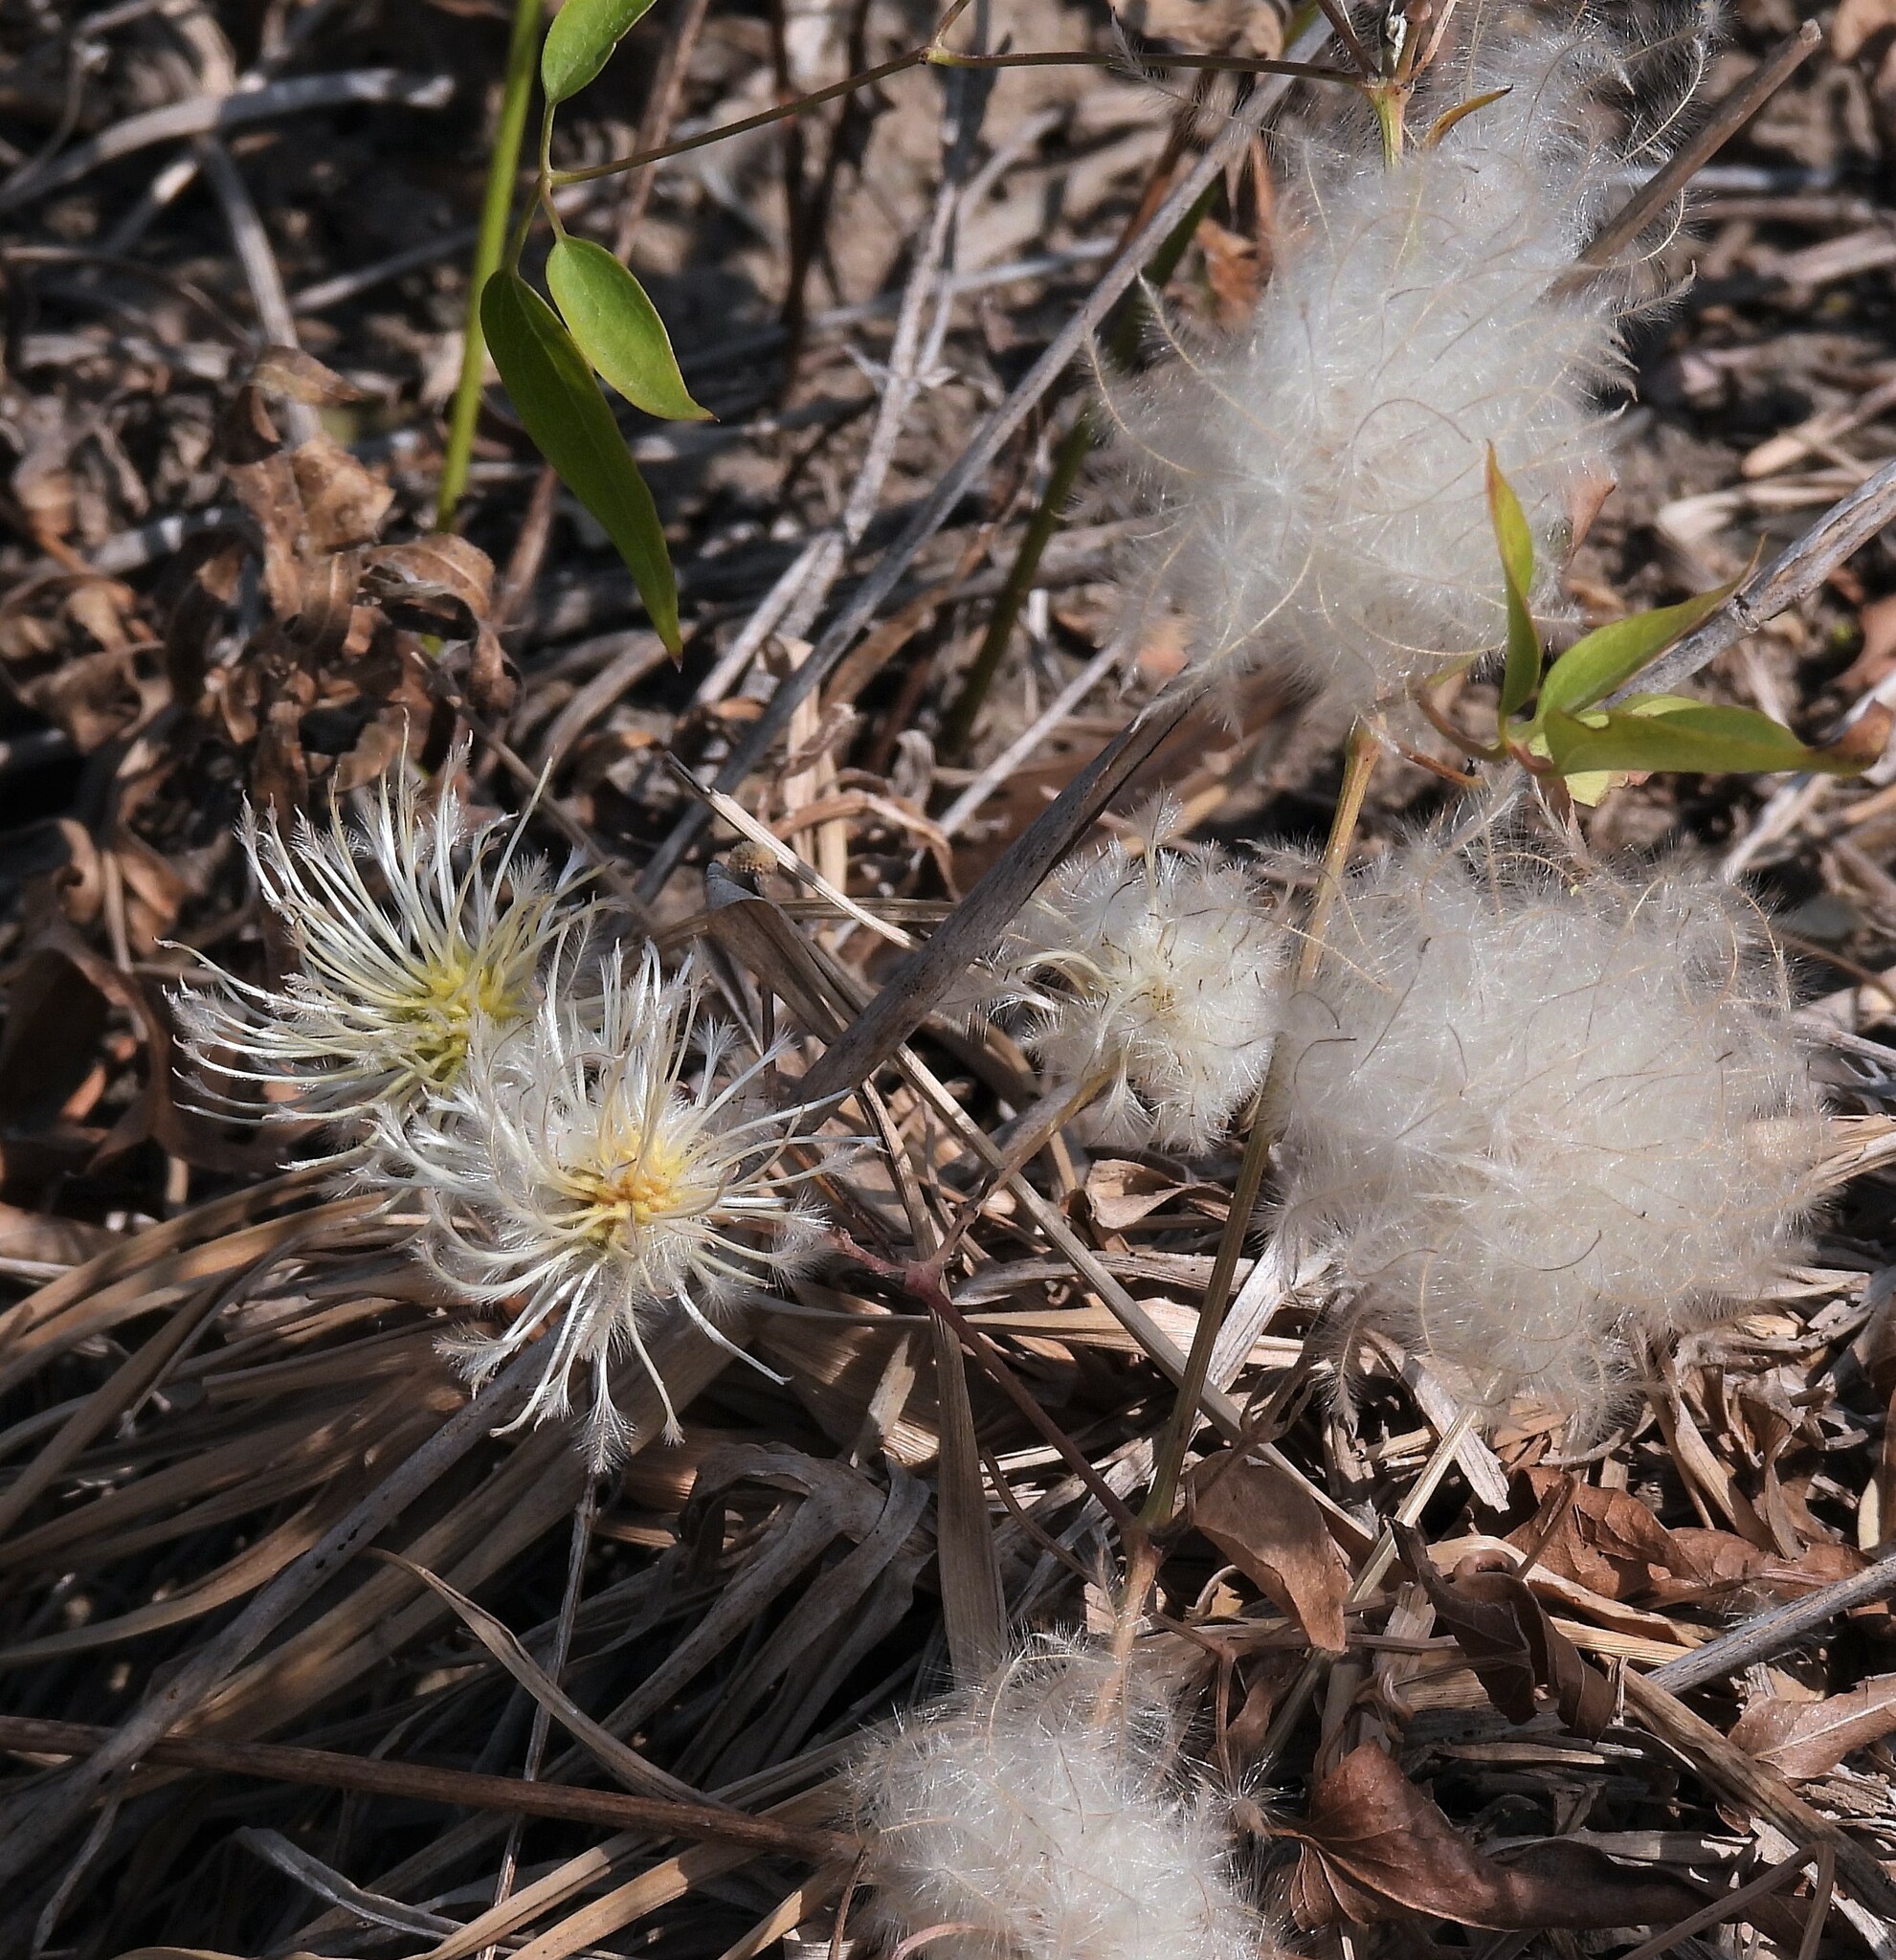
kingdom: Plantae
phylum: Tracheophyta
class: Magnoliopsida
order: Ranunculales
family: Ranunculaceae
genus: Clematis
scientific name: Clematis montevidensis
